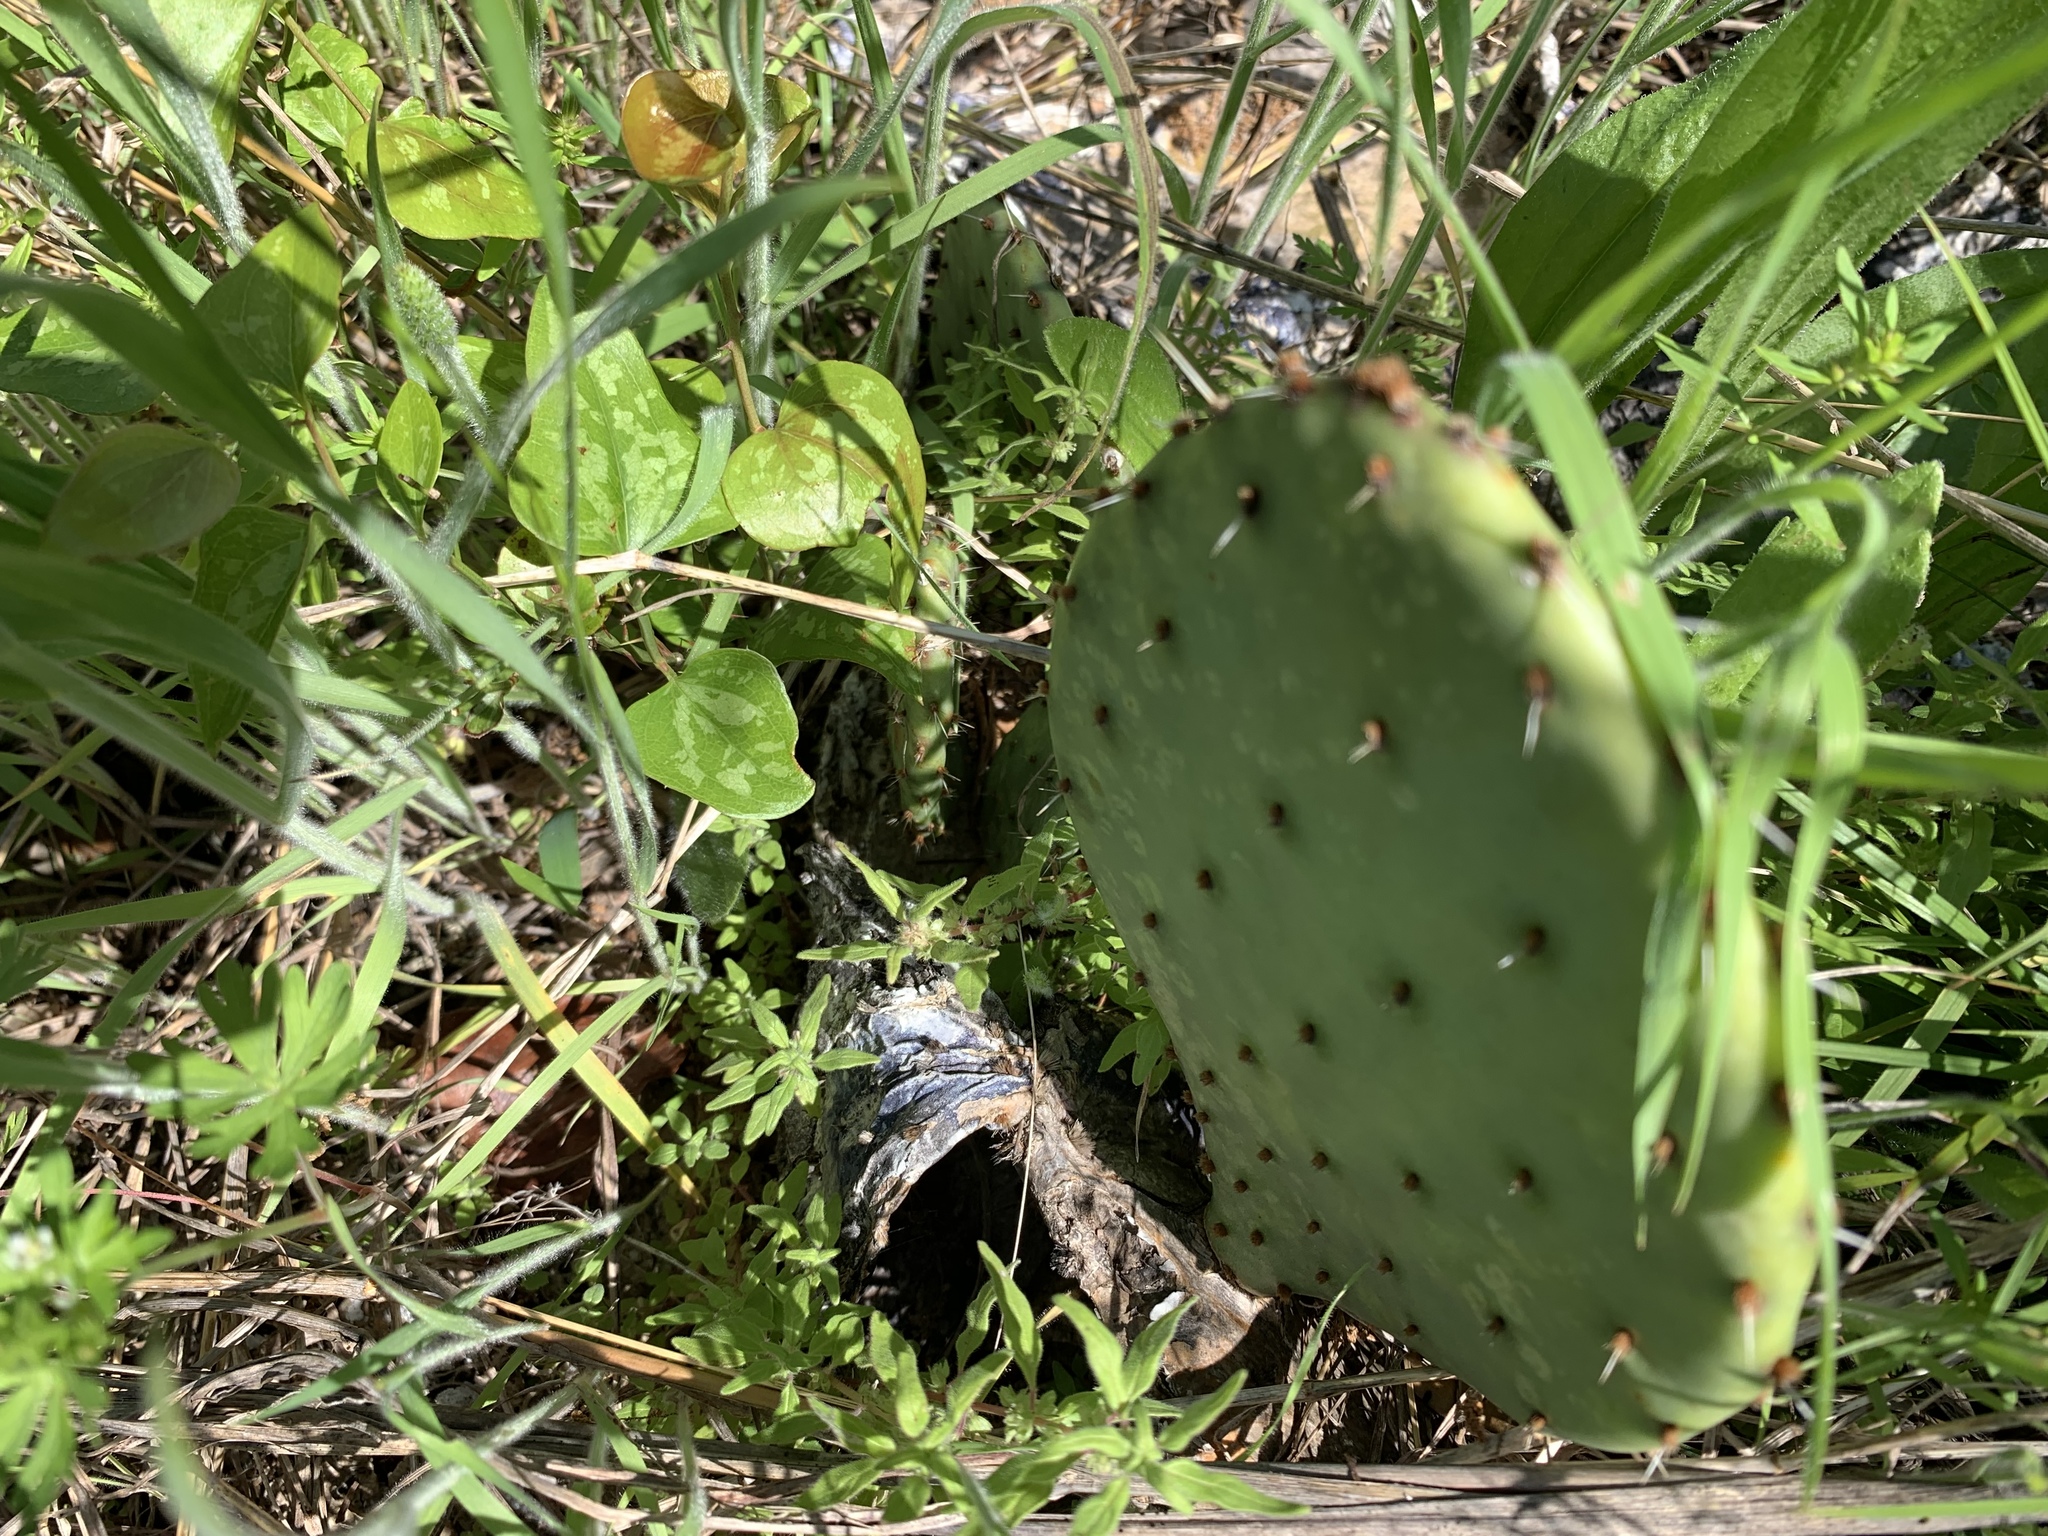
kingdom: Plantae
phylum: Tracheophyta
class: Magnoliopsida
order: Caryophyllales
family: Cactaceae
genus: Opuntia
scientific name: Opuntia engelmannii
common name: Cactus-apple
